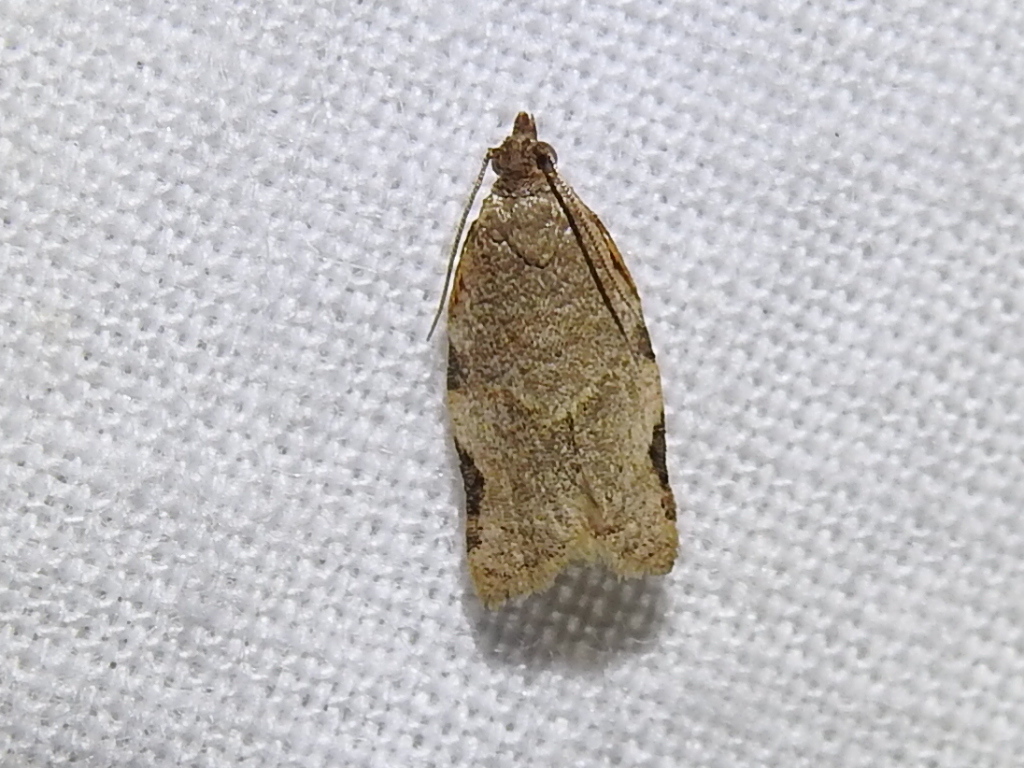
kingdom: Animalia
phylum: Arthropoda
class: Insecta
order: Lepidoptera
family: Tortricidae
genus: Clepsis
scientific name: Clepsis virescana
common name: Greenish apple moth
